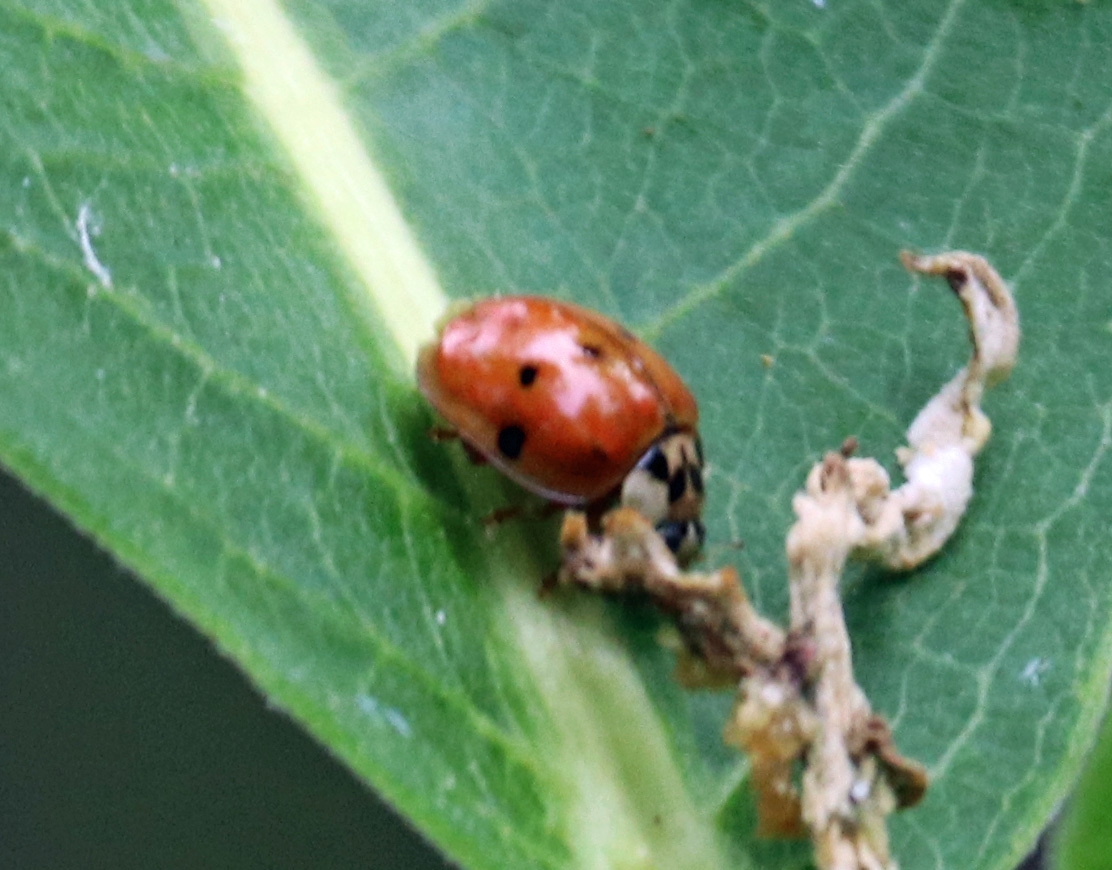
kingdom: Animalia
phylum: Arthropoda
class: Insecta
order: Coleoptera
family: Coccinellidae
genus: Harmonia
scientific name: Harmonia axyridis
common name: Harlequin ladybird
